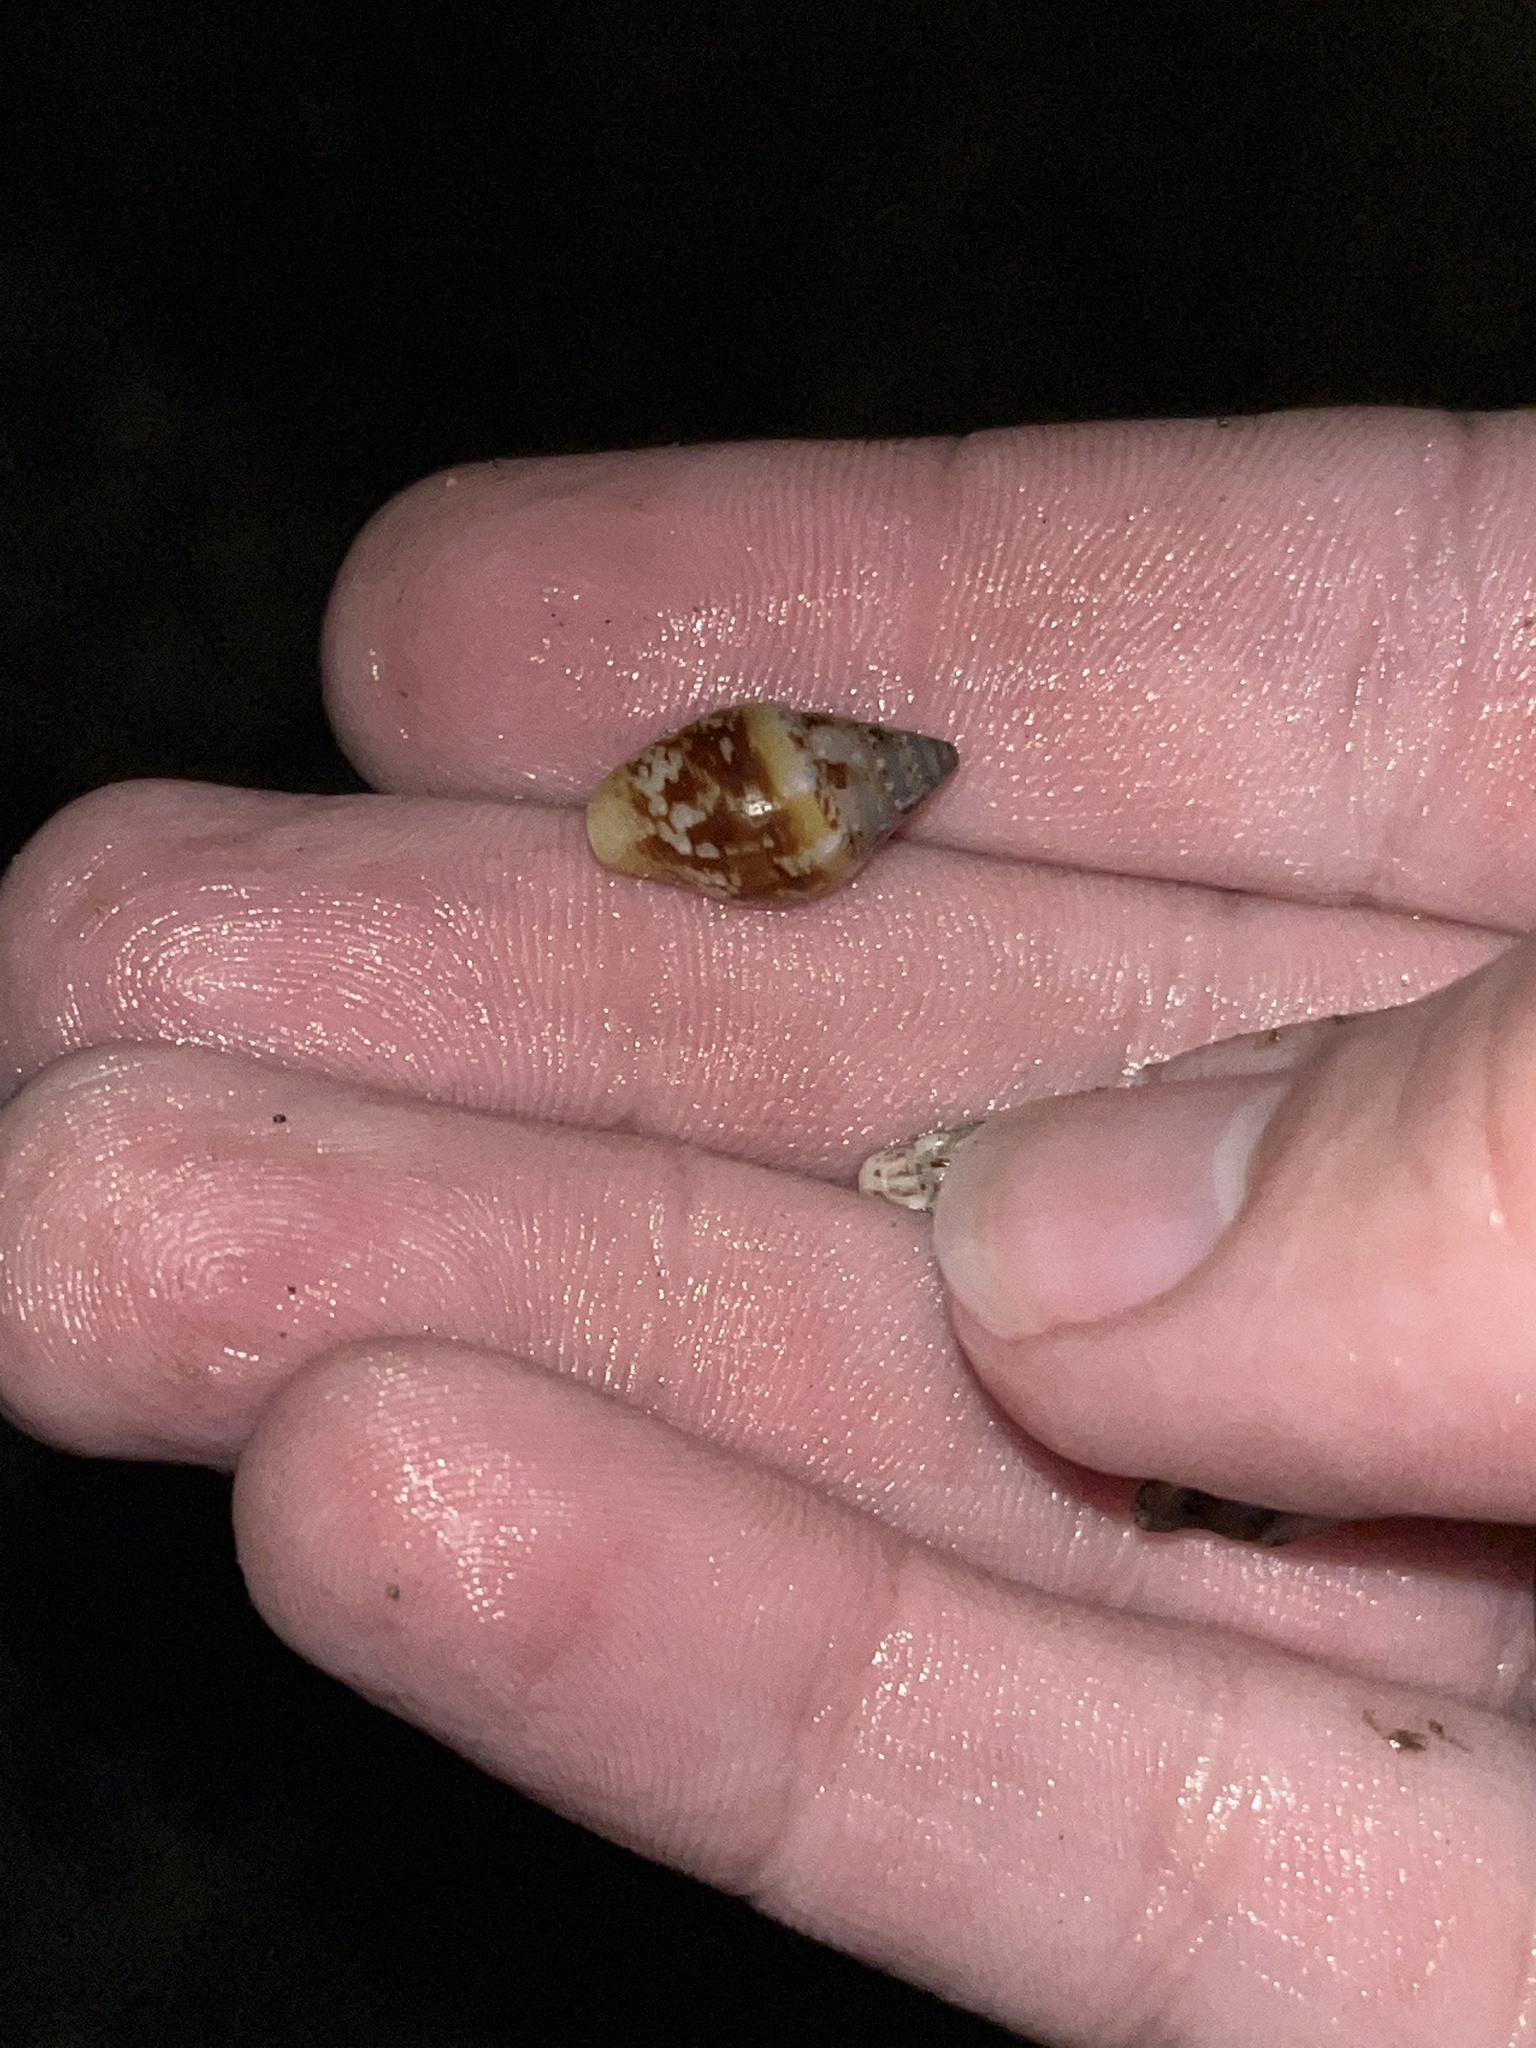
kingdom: Animalia
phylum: Mollusca
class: Gastropoda
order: Neogastropoda
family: Columbellidae
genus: Columbella
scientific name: Columbella rustica
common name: Rustic dove shell
